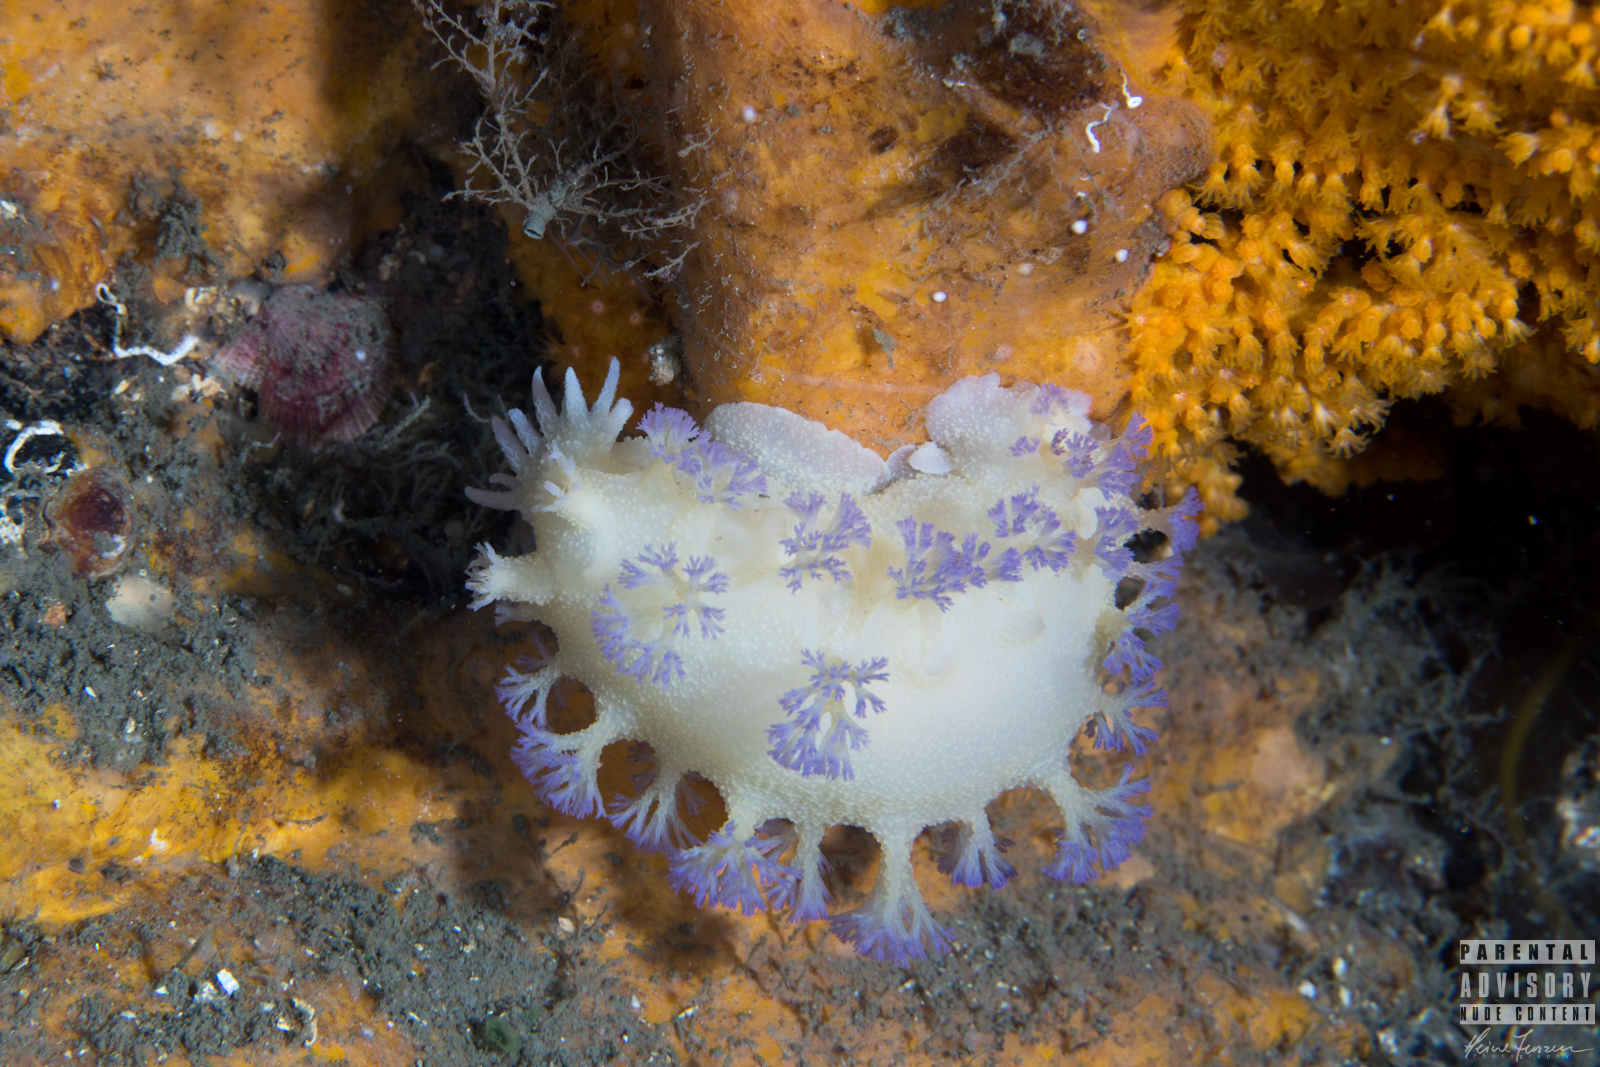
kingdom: Animalia
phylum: Mollusca
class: Gastropoda
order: Nudibranchia
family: Tritoniidae
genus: Tritonia
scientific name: Tritonia griegi
